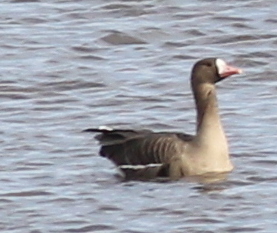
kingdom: Animalia
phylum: Chordata
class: Aves
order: Anseriformes
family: Anatidae
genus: Anser
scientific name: Anser albifrons
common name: Greater white-fronted goose
